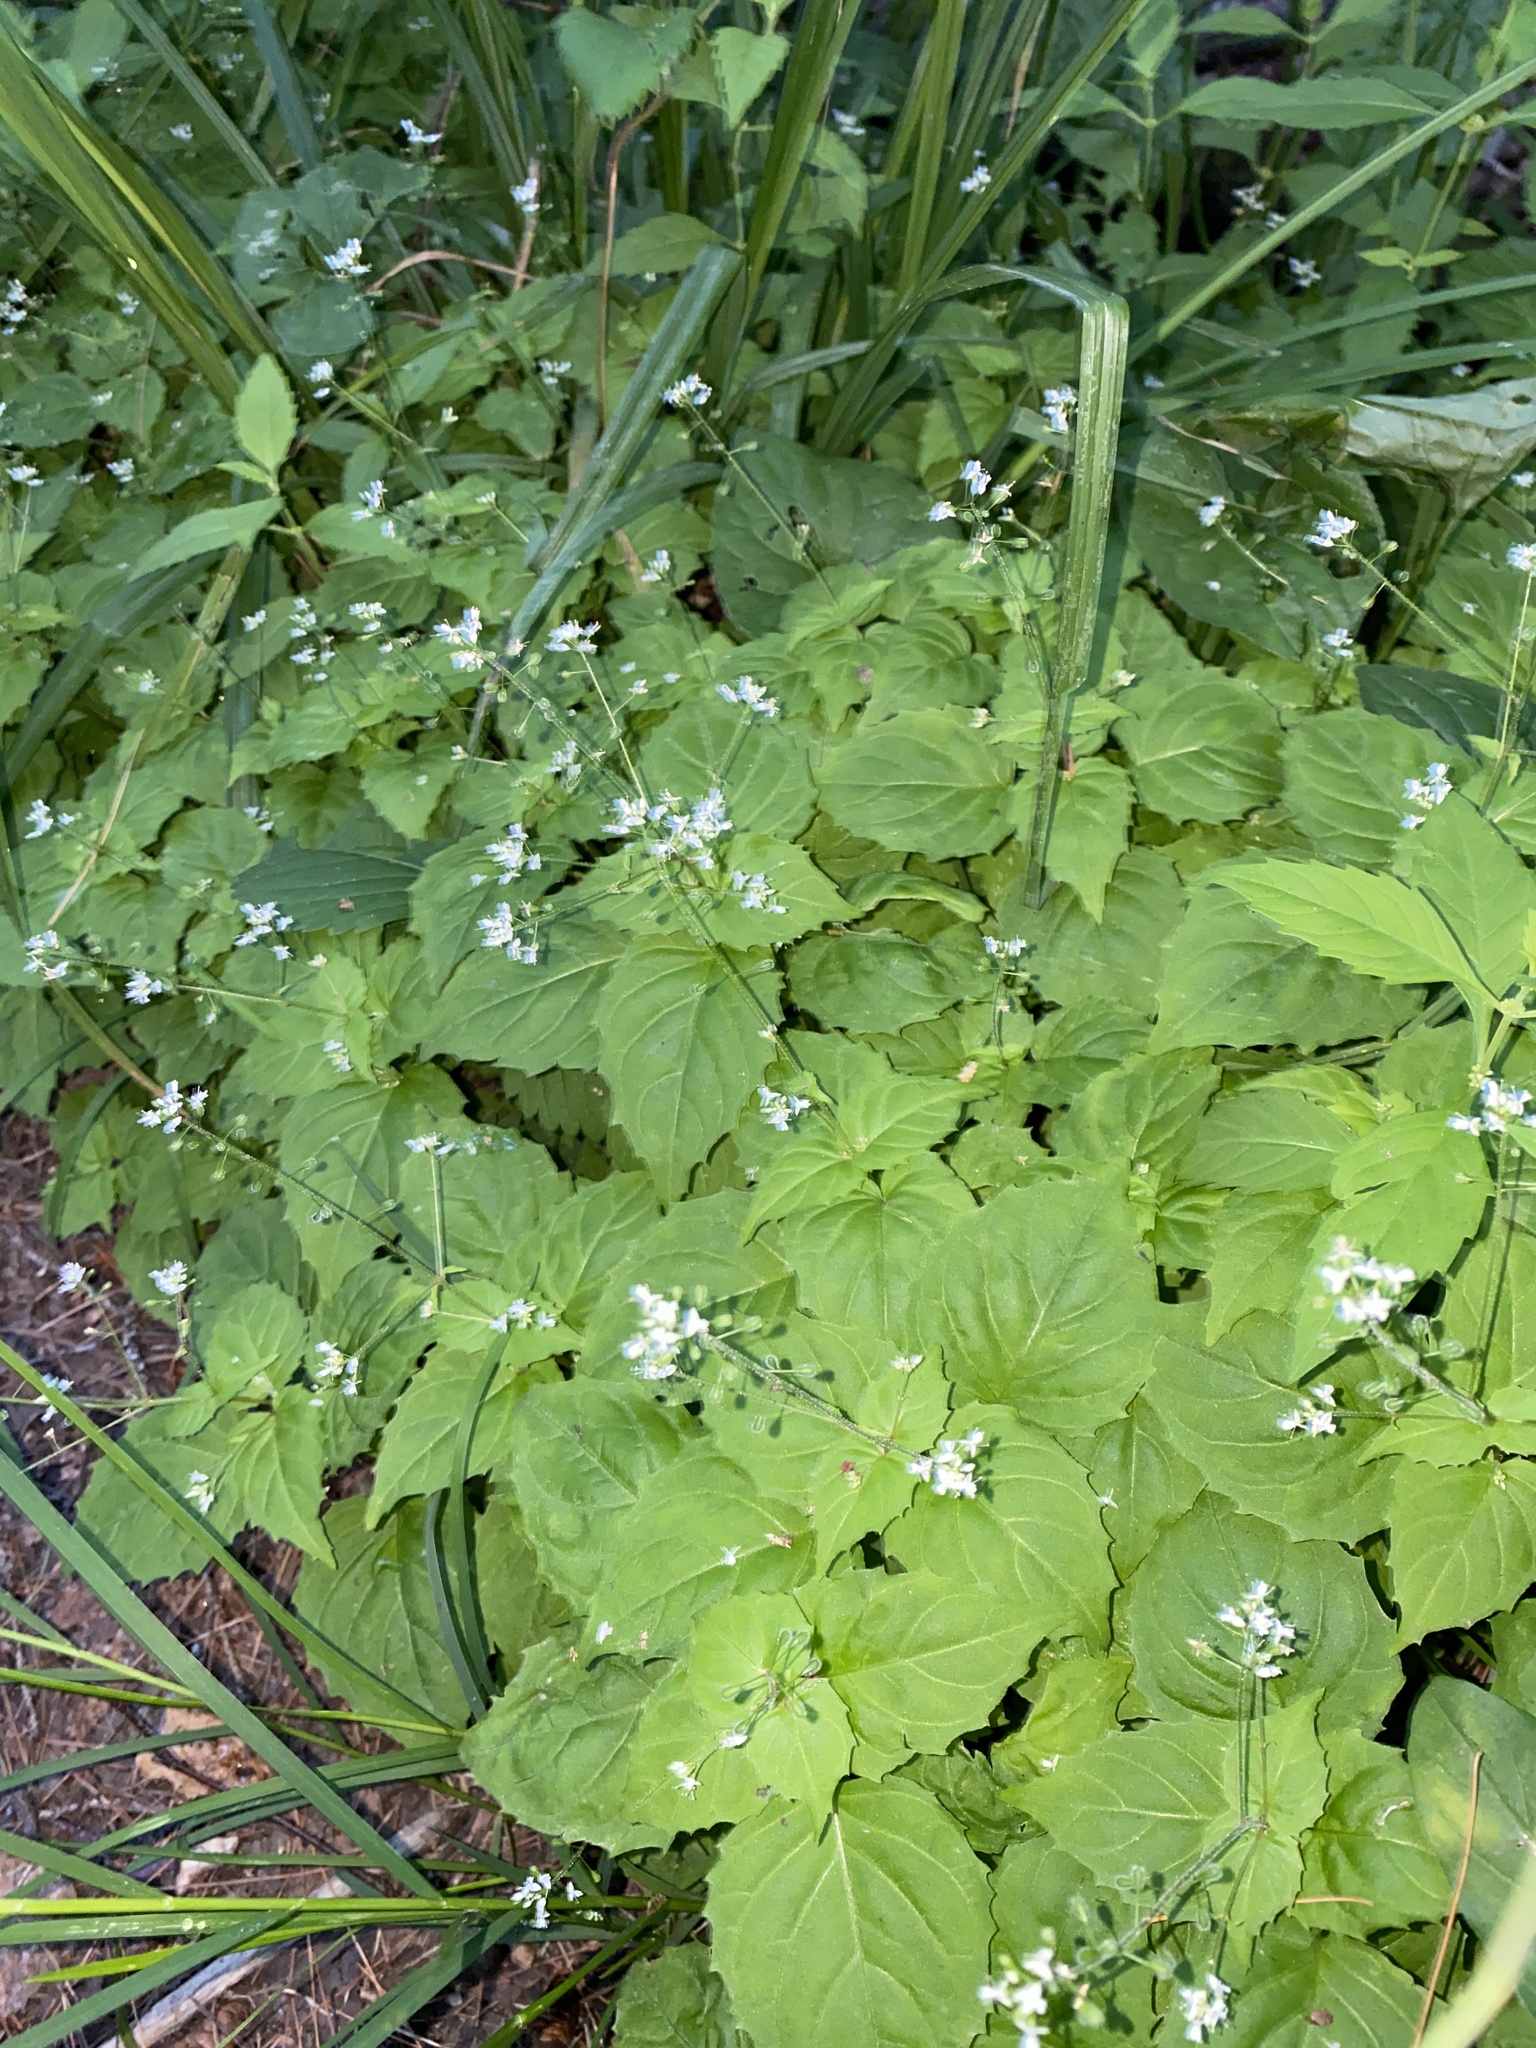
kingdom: Plantae
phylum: Tracheophyta
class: Magnoliopsida
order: Myrtales
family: Onagraceae
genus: Circaea
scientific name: Circaea alpina
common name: Alpine enchanter's-nightshade
